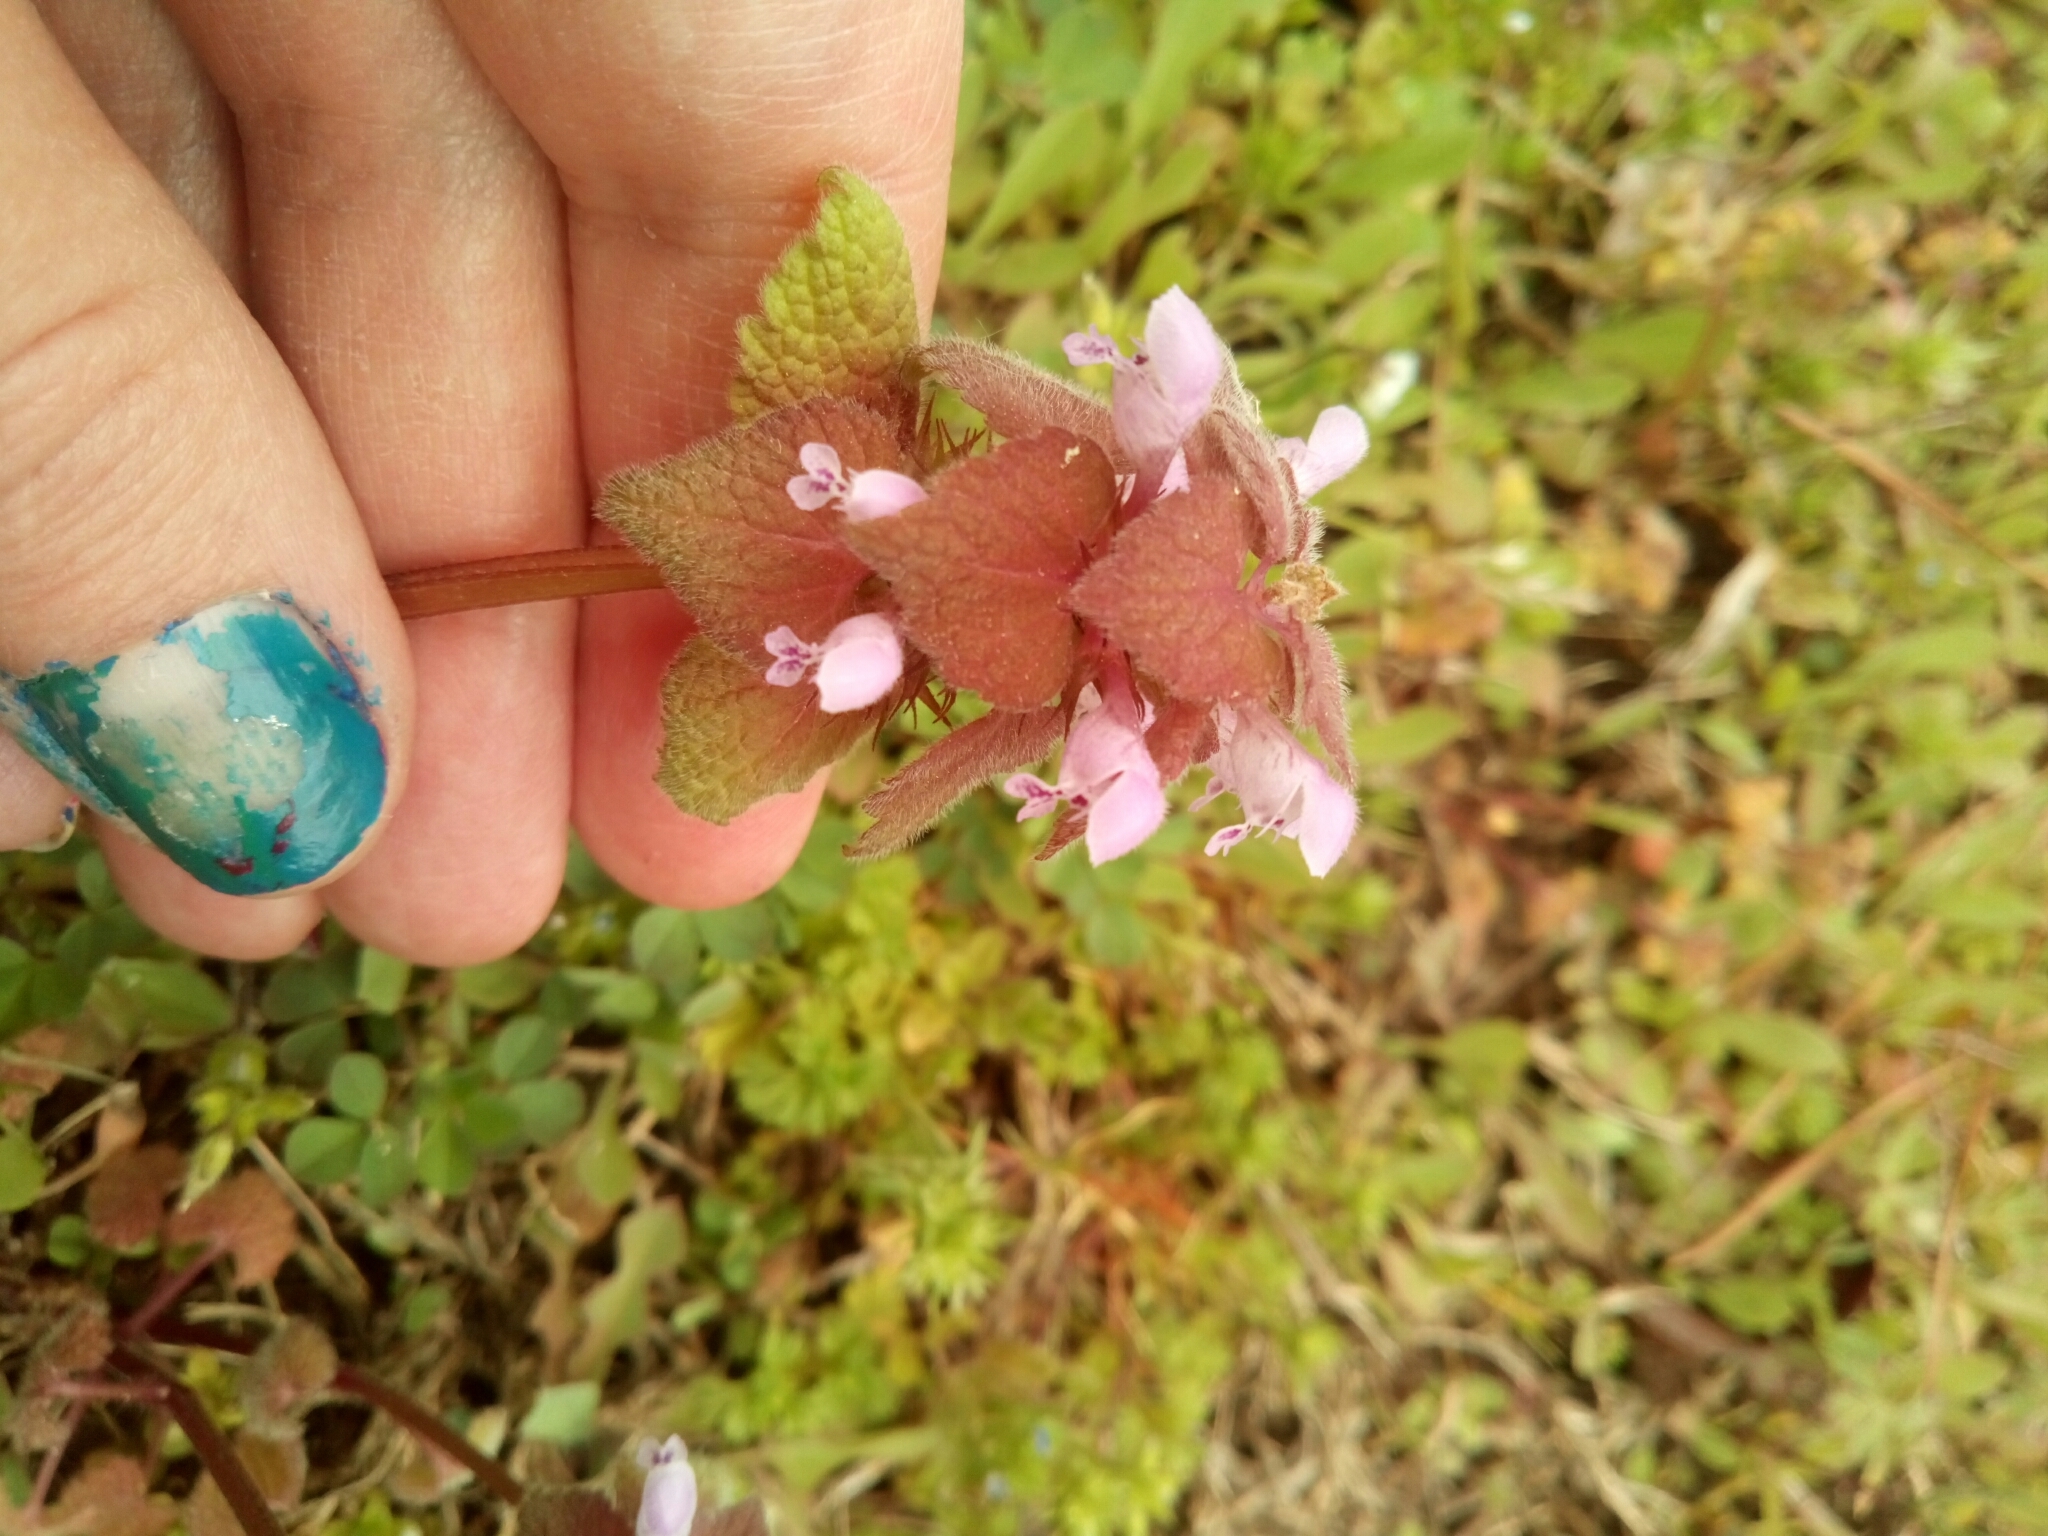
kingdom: Plantae
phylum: Tracheophyta
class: Magnoliopsida
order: Lamiales
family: Lamiaceae
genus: Lamium
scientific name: Lamium purpureum
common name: Red dead-nettle
